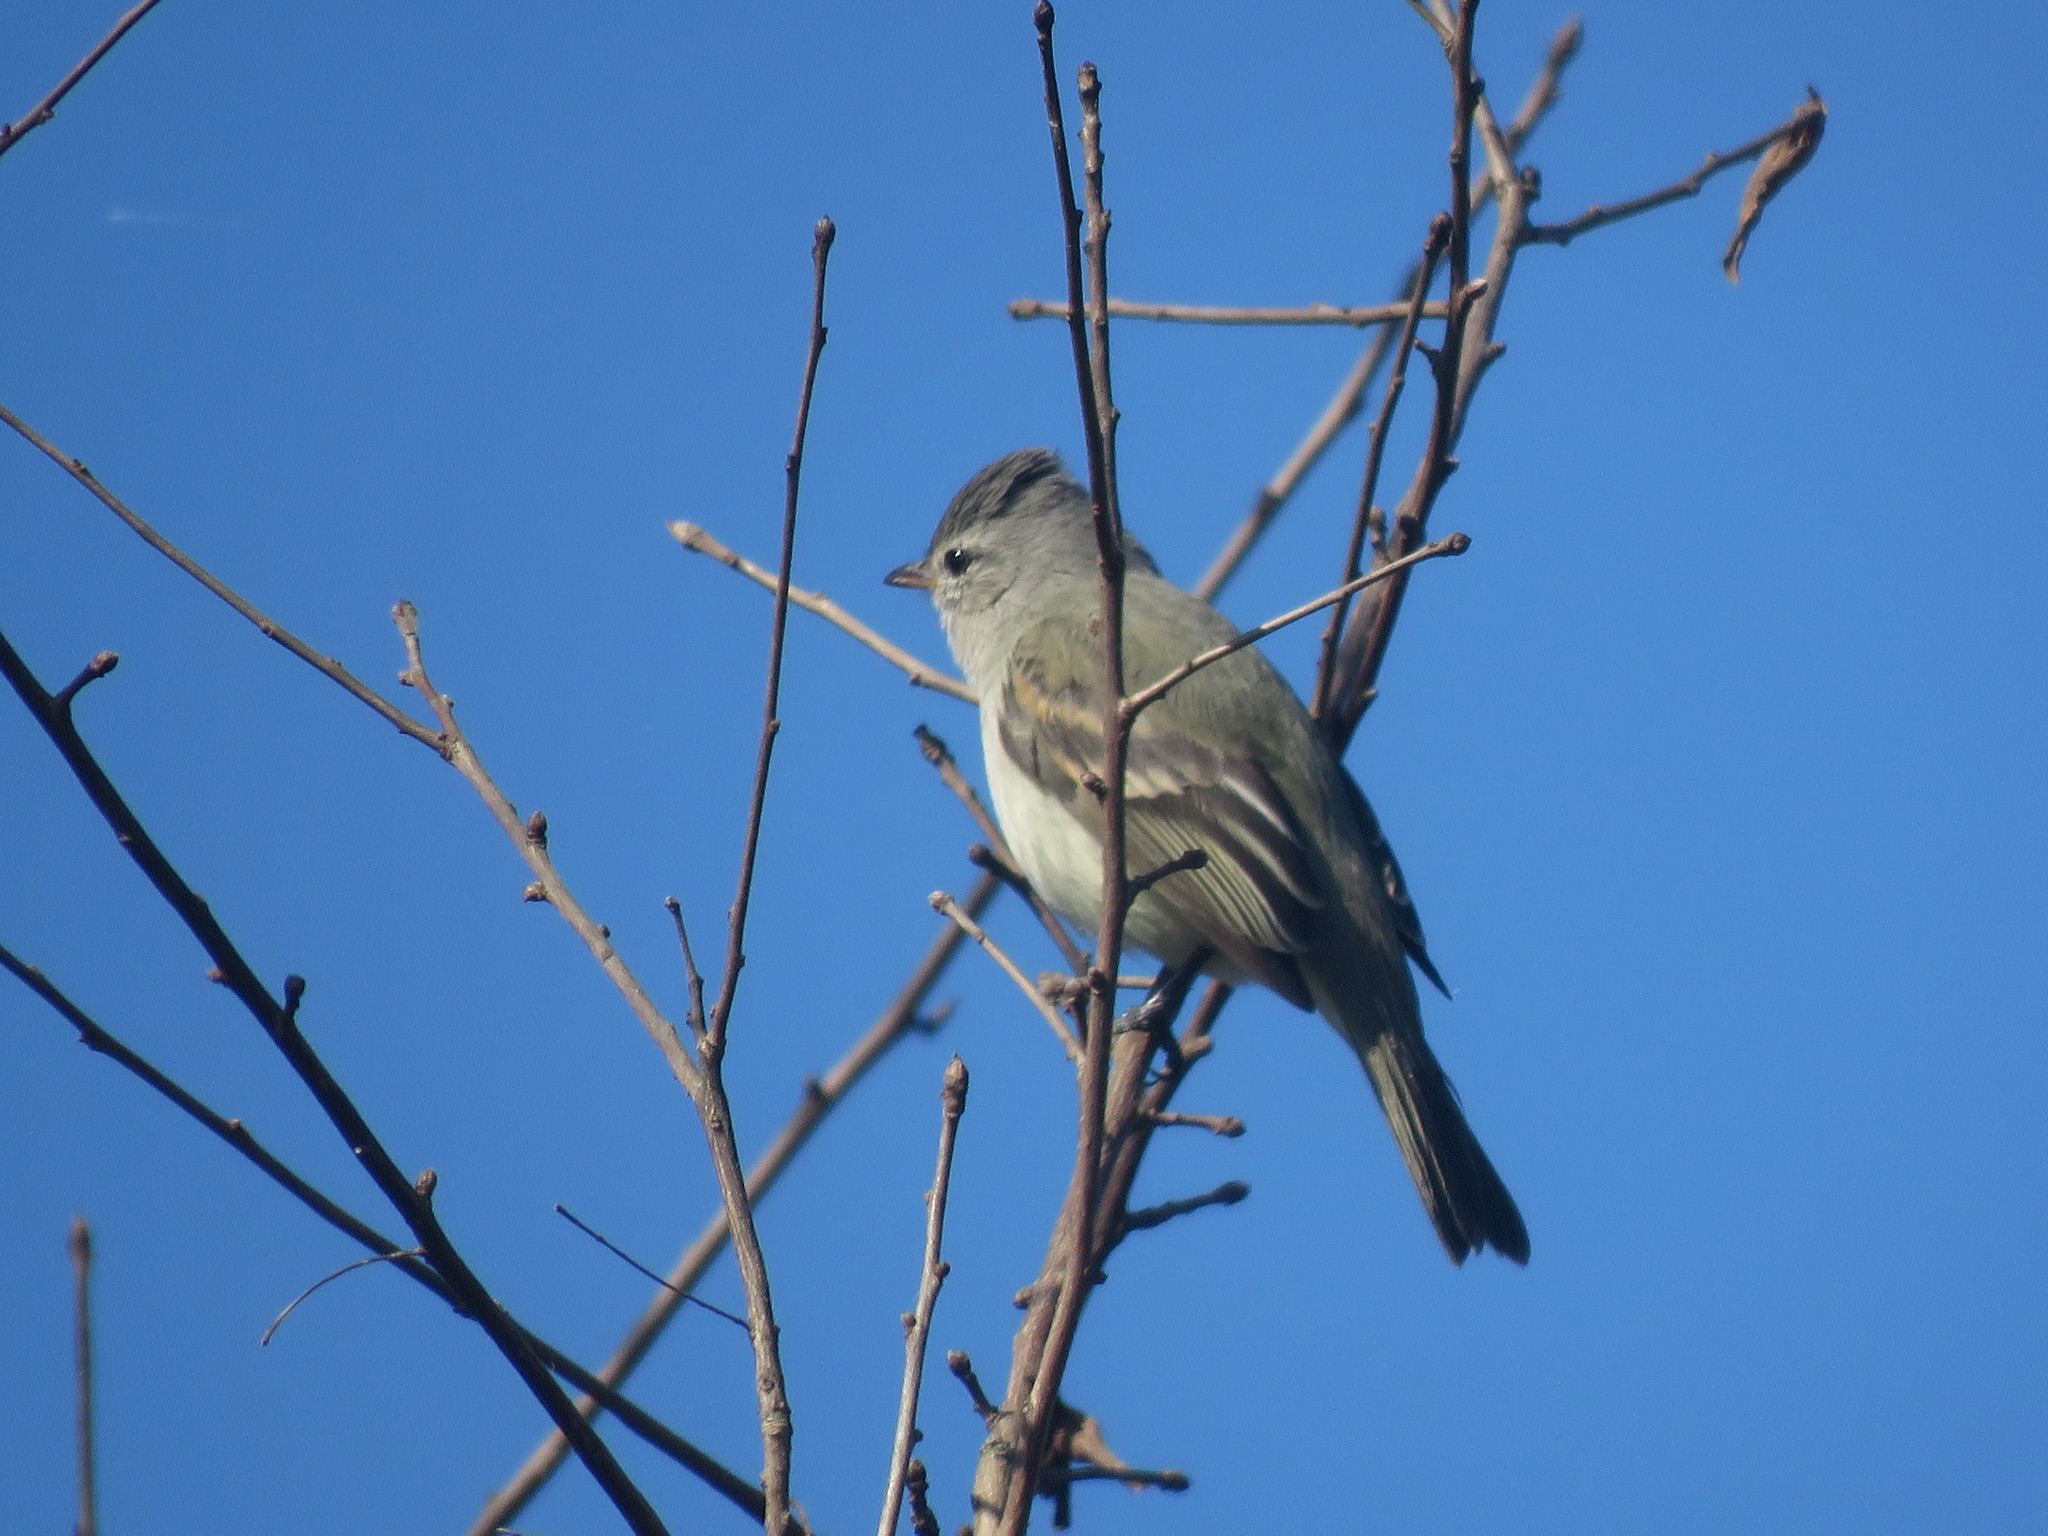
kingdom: Animalia
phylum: Chordata
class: Aves
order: Passeriformes
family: Tyrannidae
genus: Camptostoma
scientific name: Camptostoma obsoletum
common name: Southern beardless-tyrannulet
